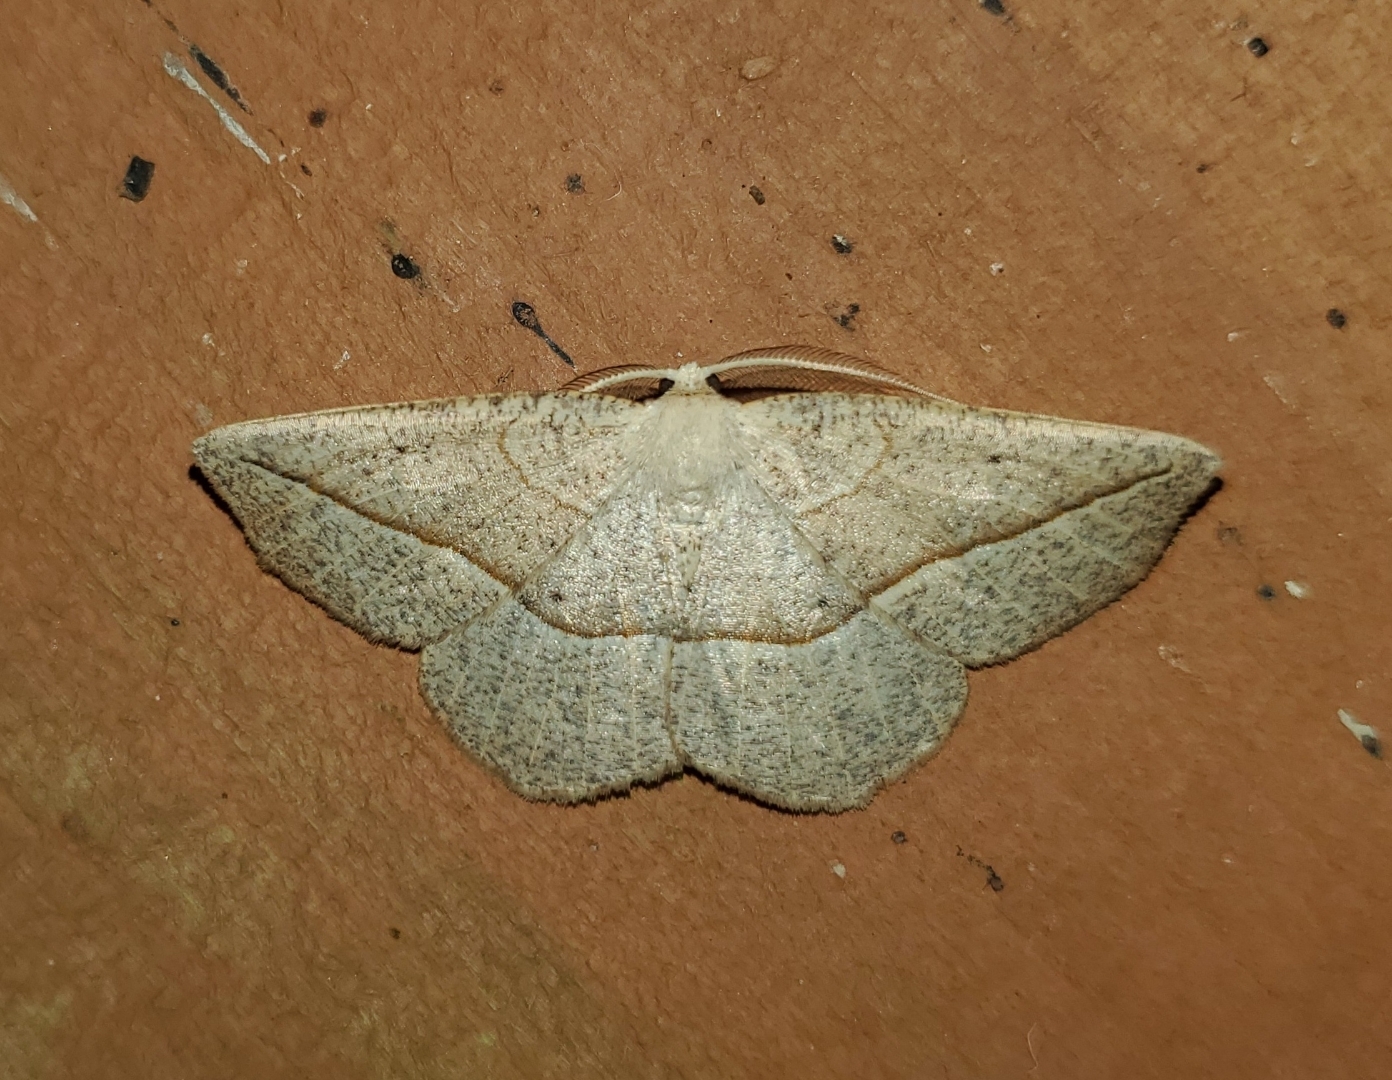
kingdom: Animalia
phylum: Arthropoda
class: Insecta
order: Lepidoptera
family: Geometridae
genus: Eusarca
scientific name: Eusarca confusaria
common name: Confused eusarca
